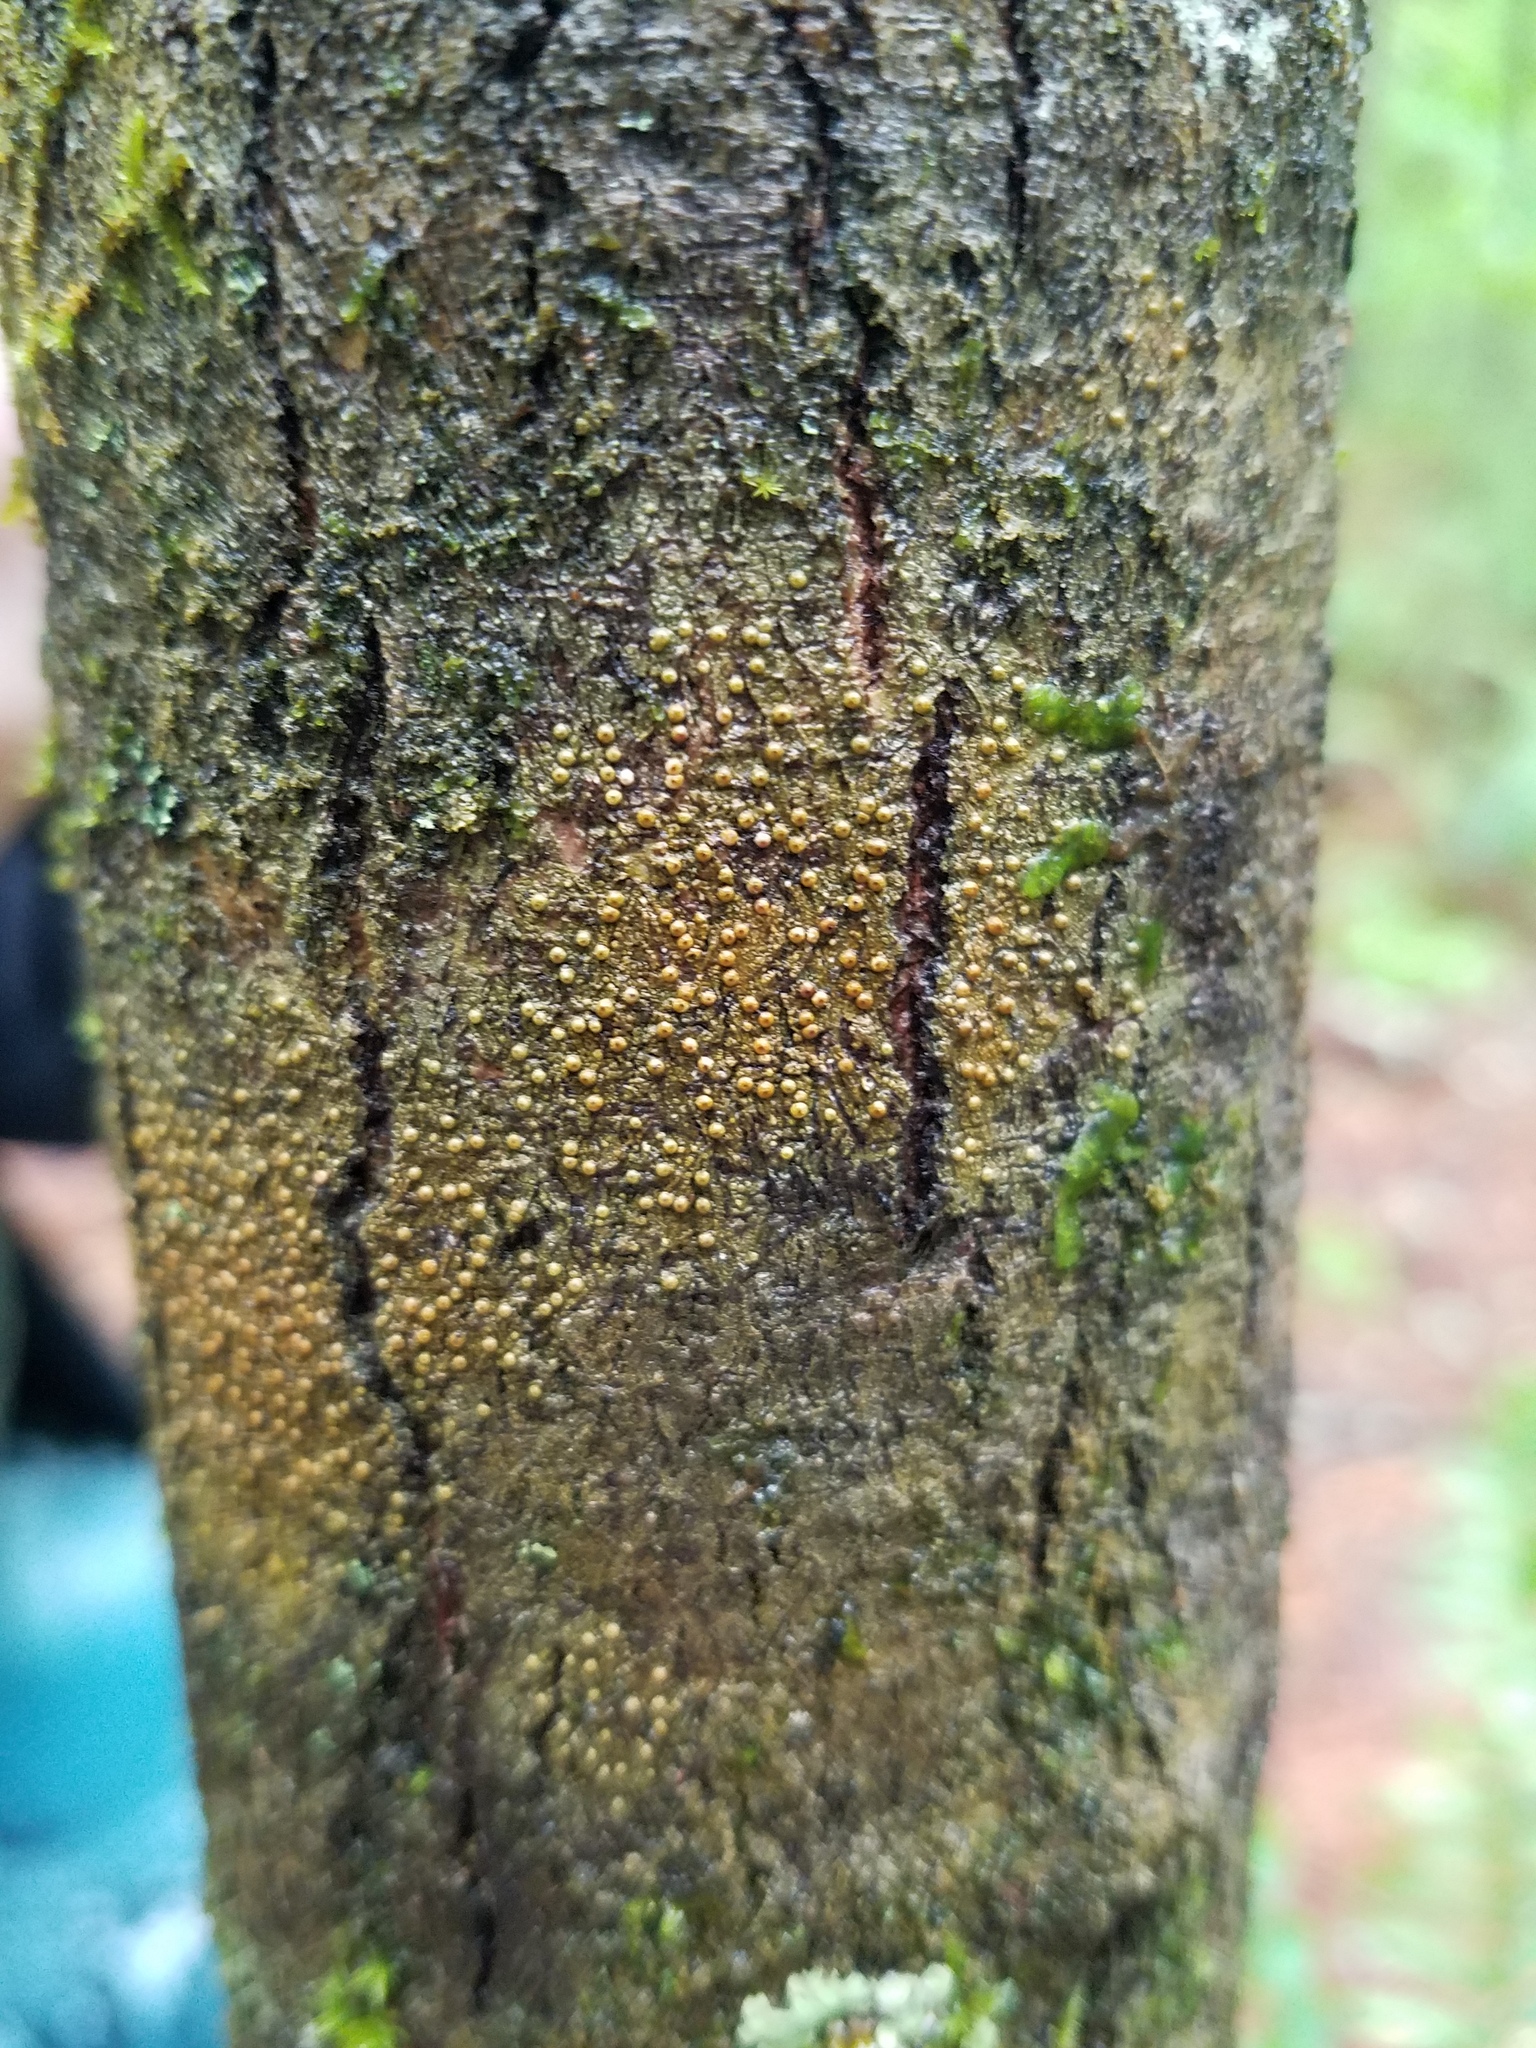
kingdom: Fungi
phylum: Ascomycota
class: Lecanoromycetes
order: Pertusariales
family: Pertusariaceae
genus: Porina
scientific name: Porina heterospora
